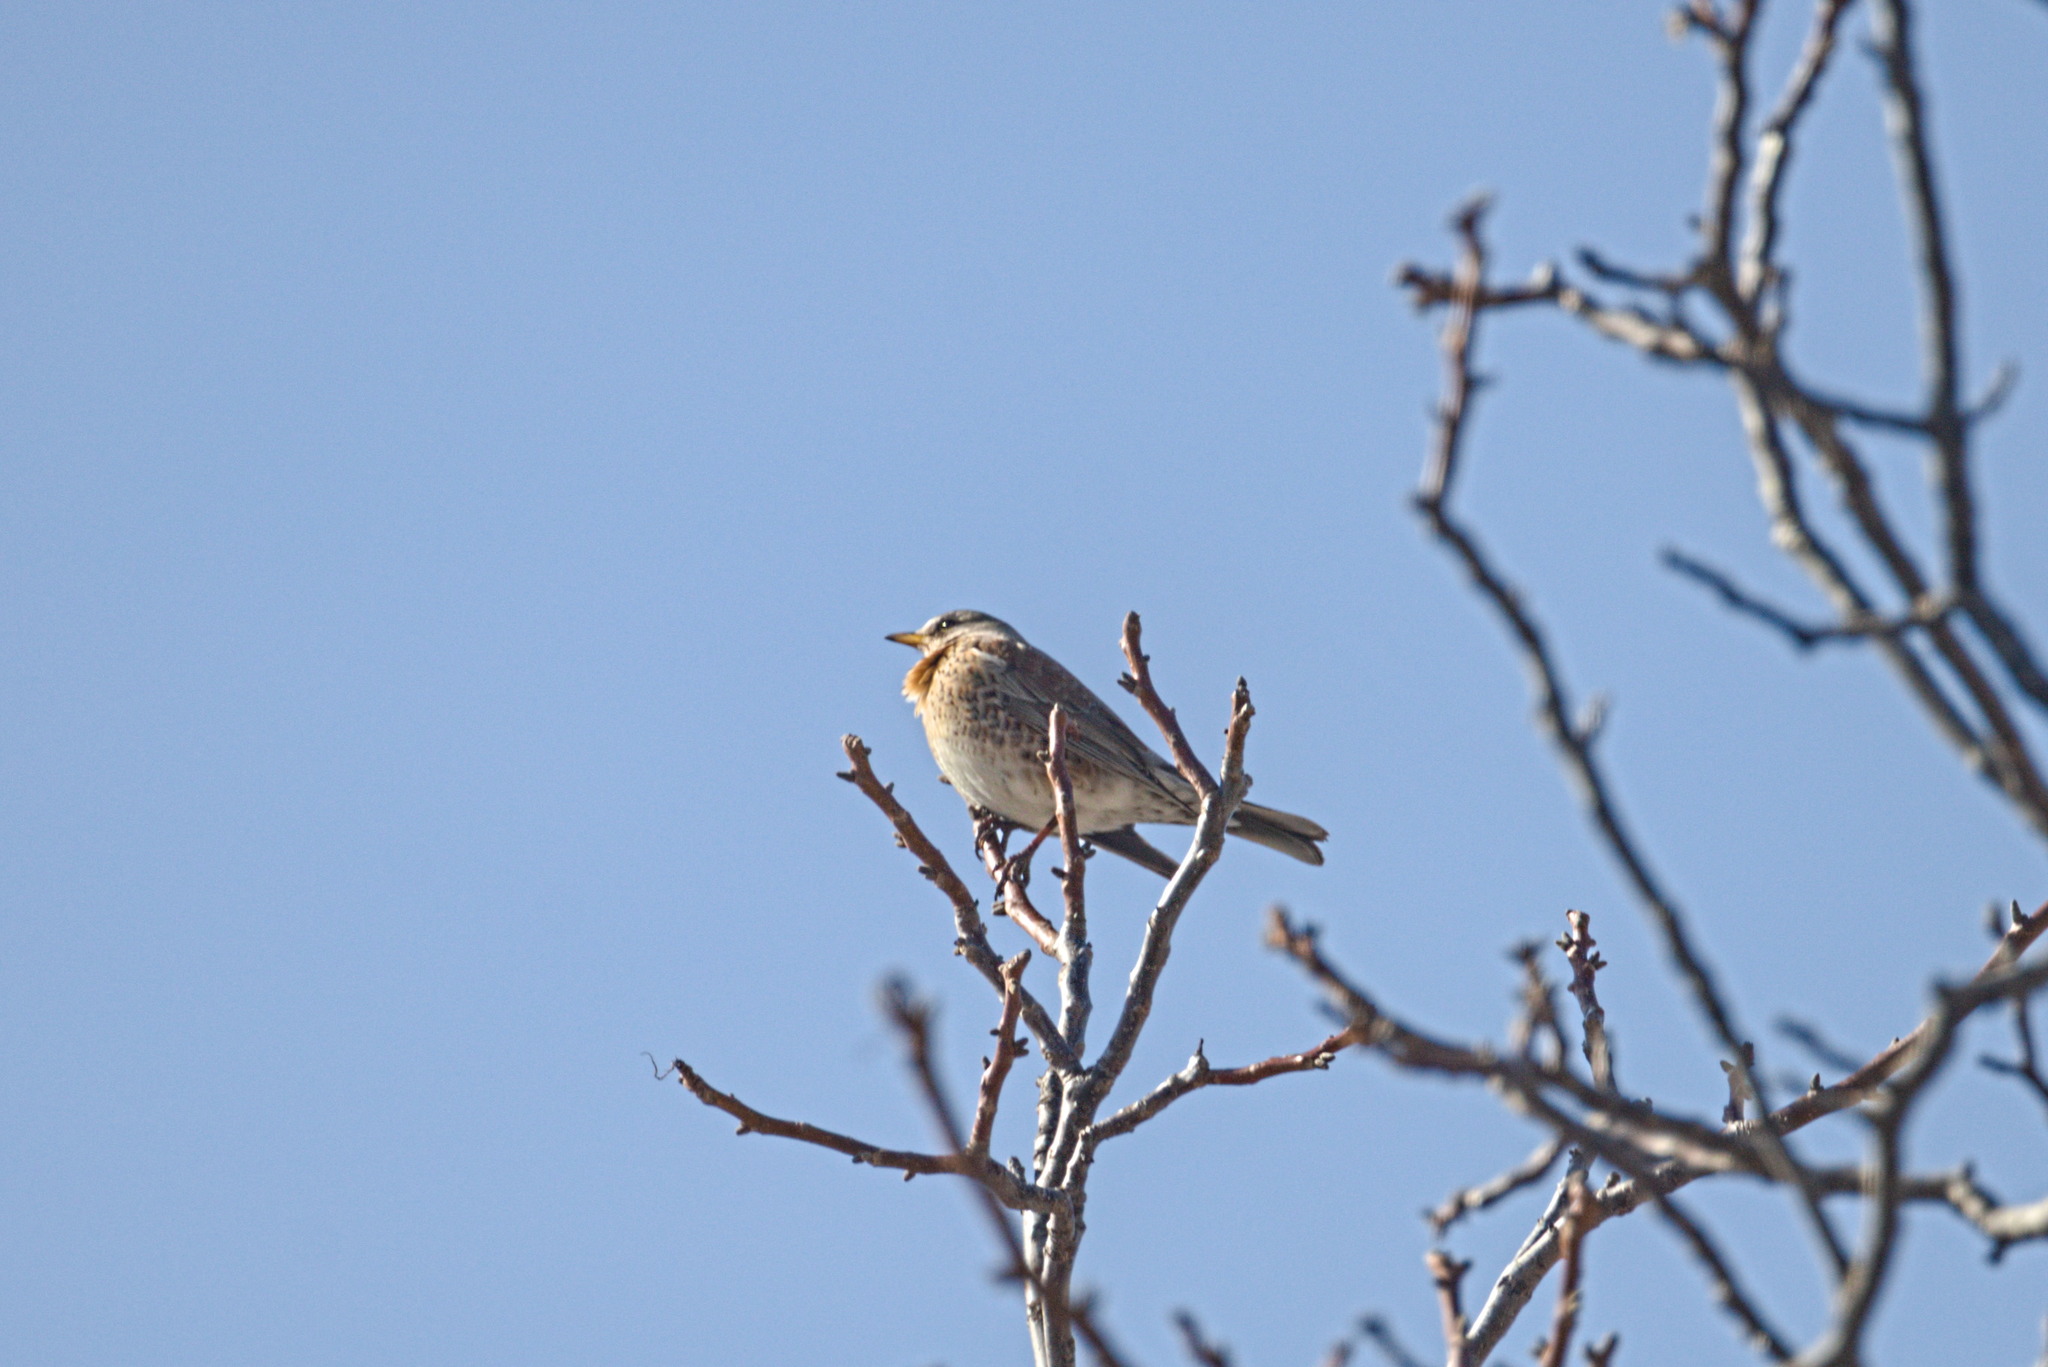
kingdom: Animalia
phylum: Chordata
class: Aves
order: Passeriformes
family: Turdidae
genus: Turdus
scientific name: Turdus pilaris
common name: Fieldfare
